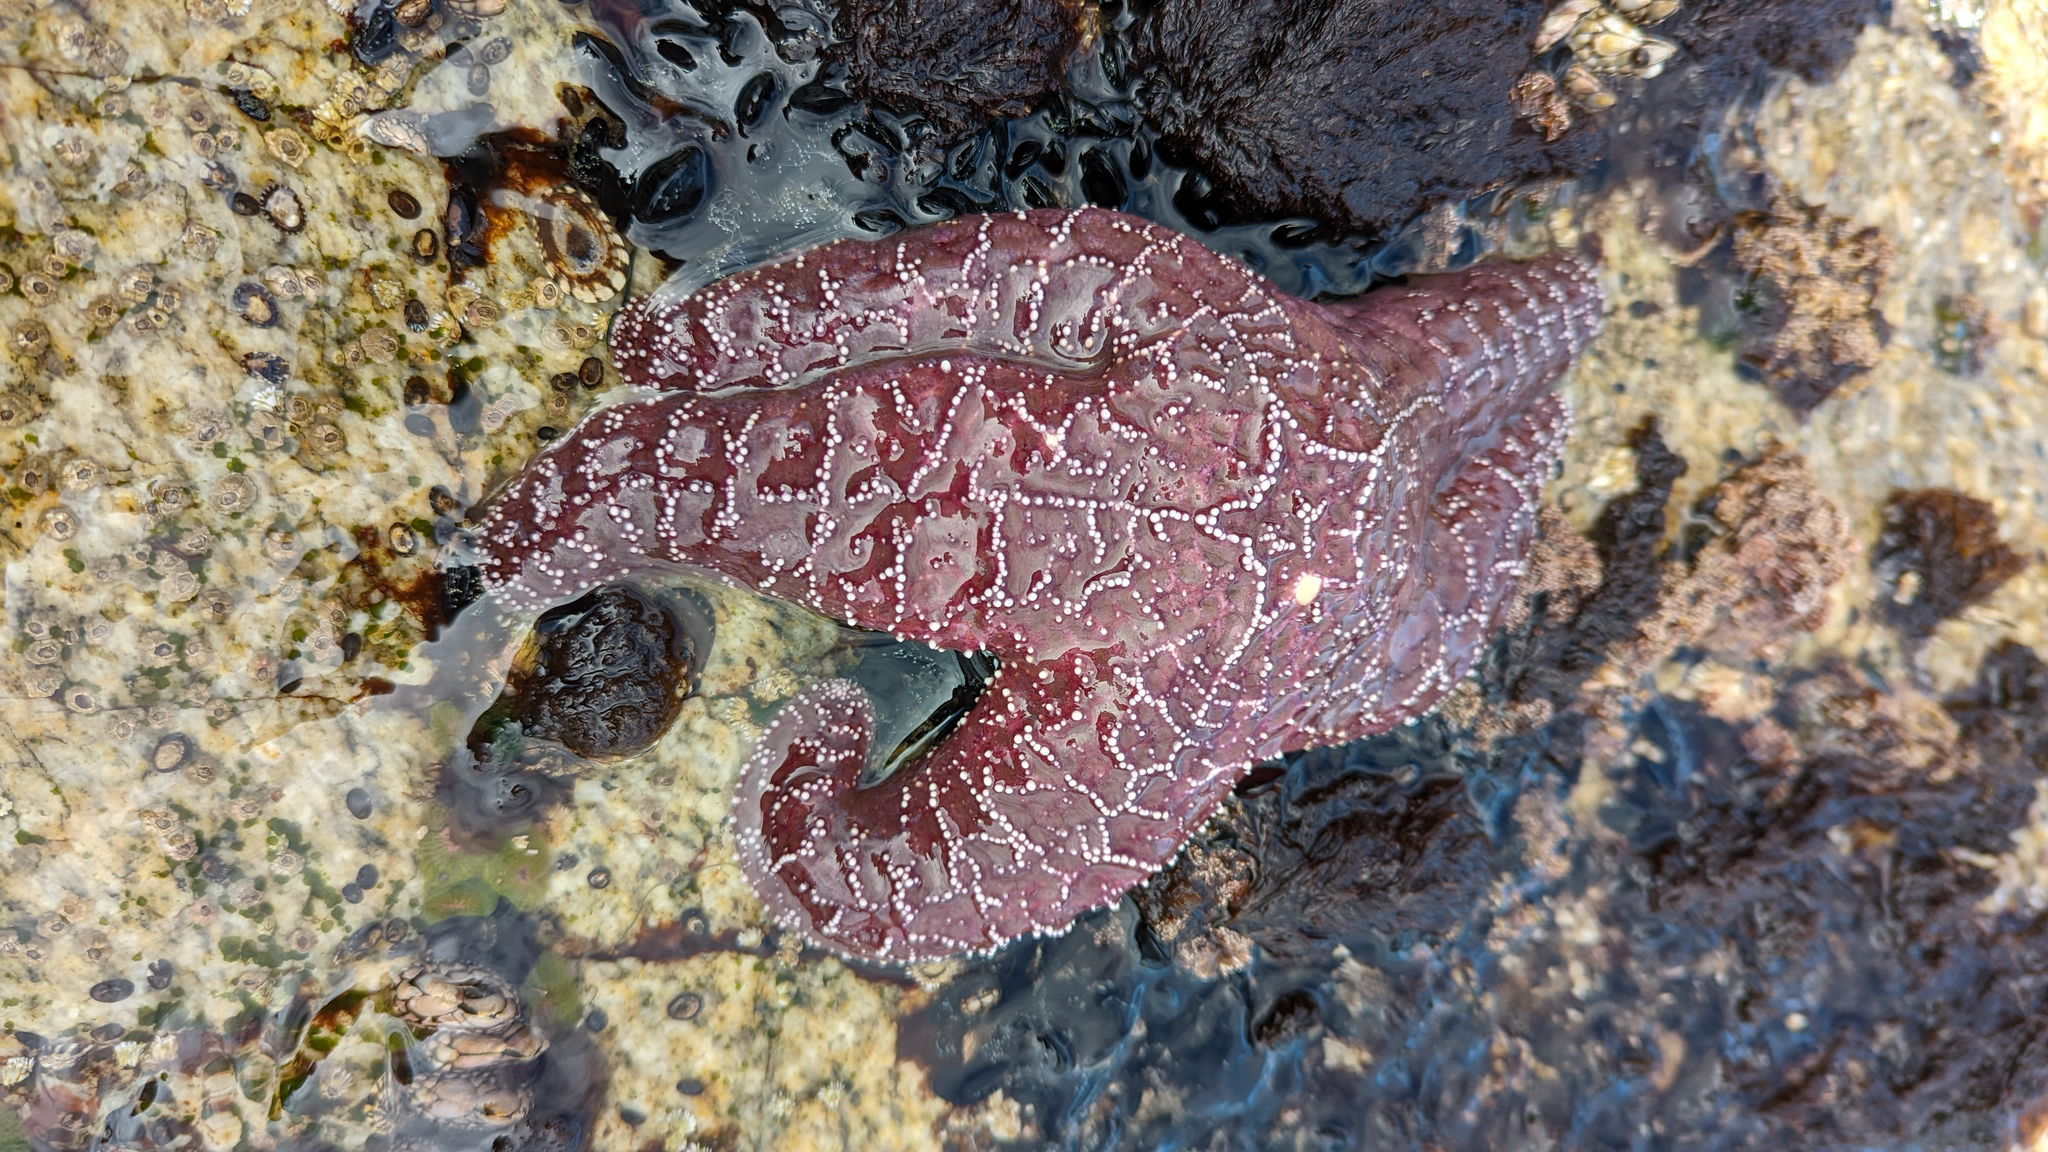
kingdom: Animalia
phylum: Echinodermata
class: Asteroidea
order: Forcipulatida
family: Asteriidae
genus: Pisaster
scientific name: Pisaster ochraceus
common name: Ochre stars
